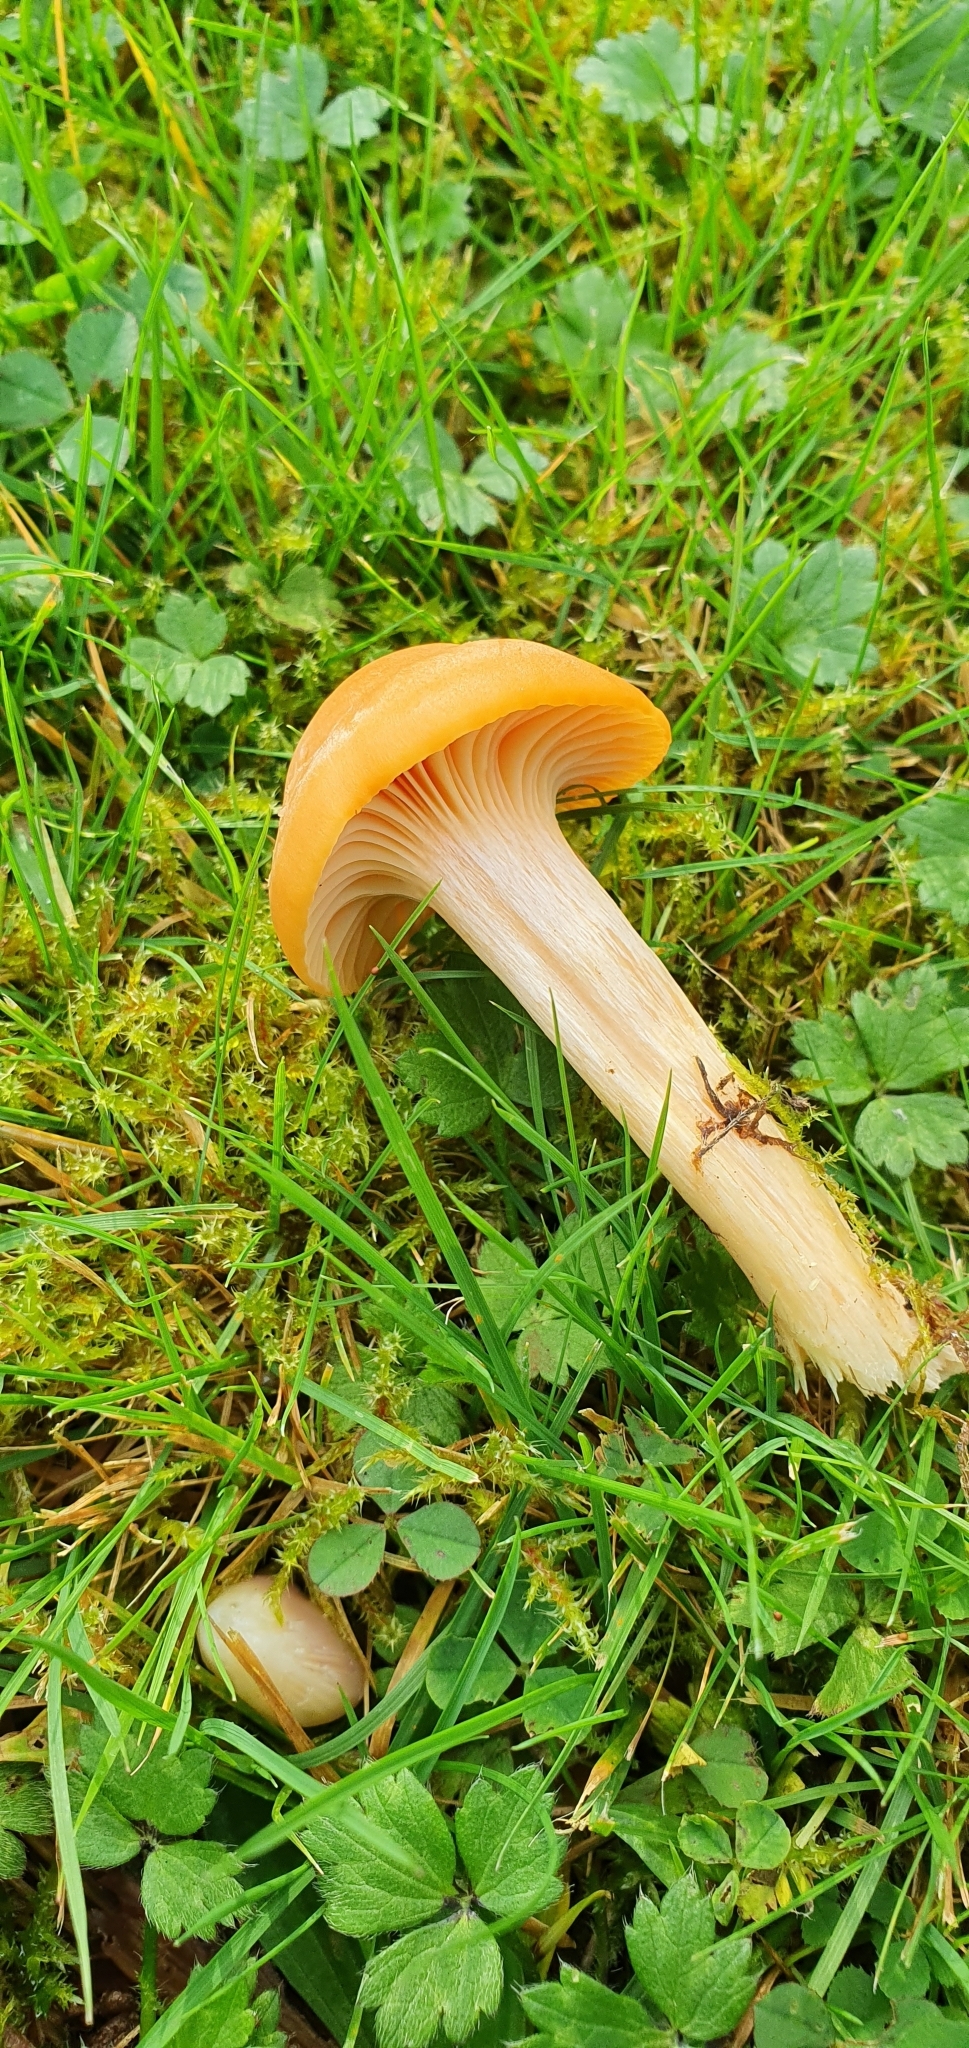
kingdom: Fungi
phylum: Basidiomycota
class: Agaricomycetes
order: Agaricales
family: Hygrophoraceae
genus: Cuphophyllus
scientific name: Cuphophyllus pratensis
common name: Meadow waxcap
